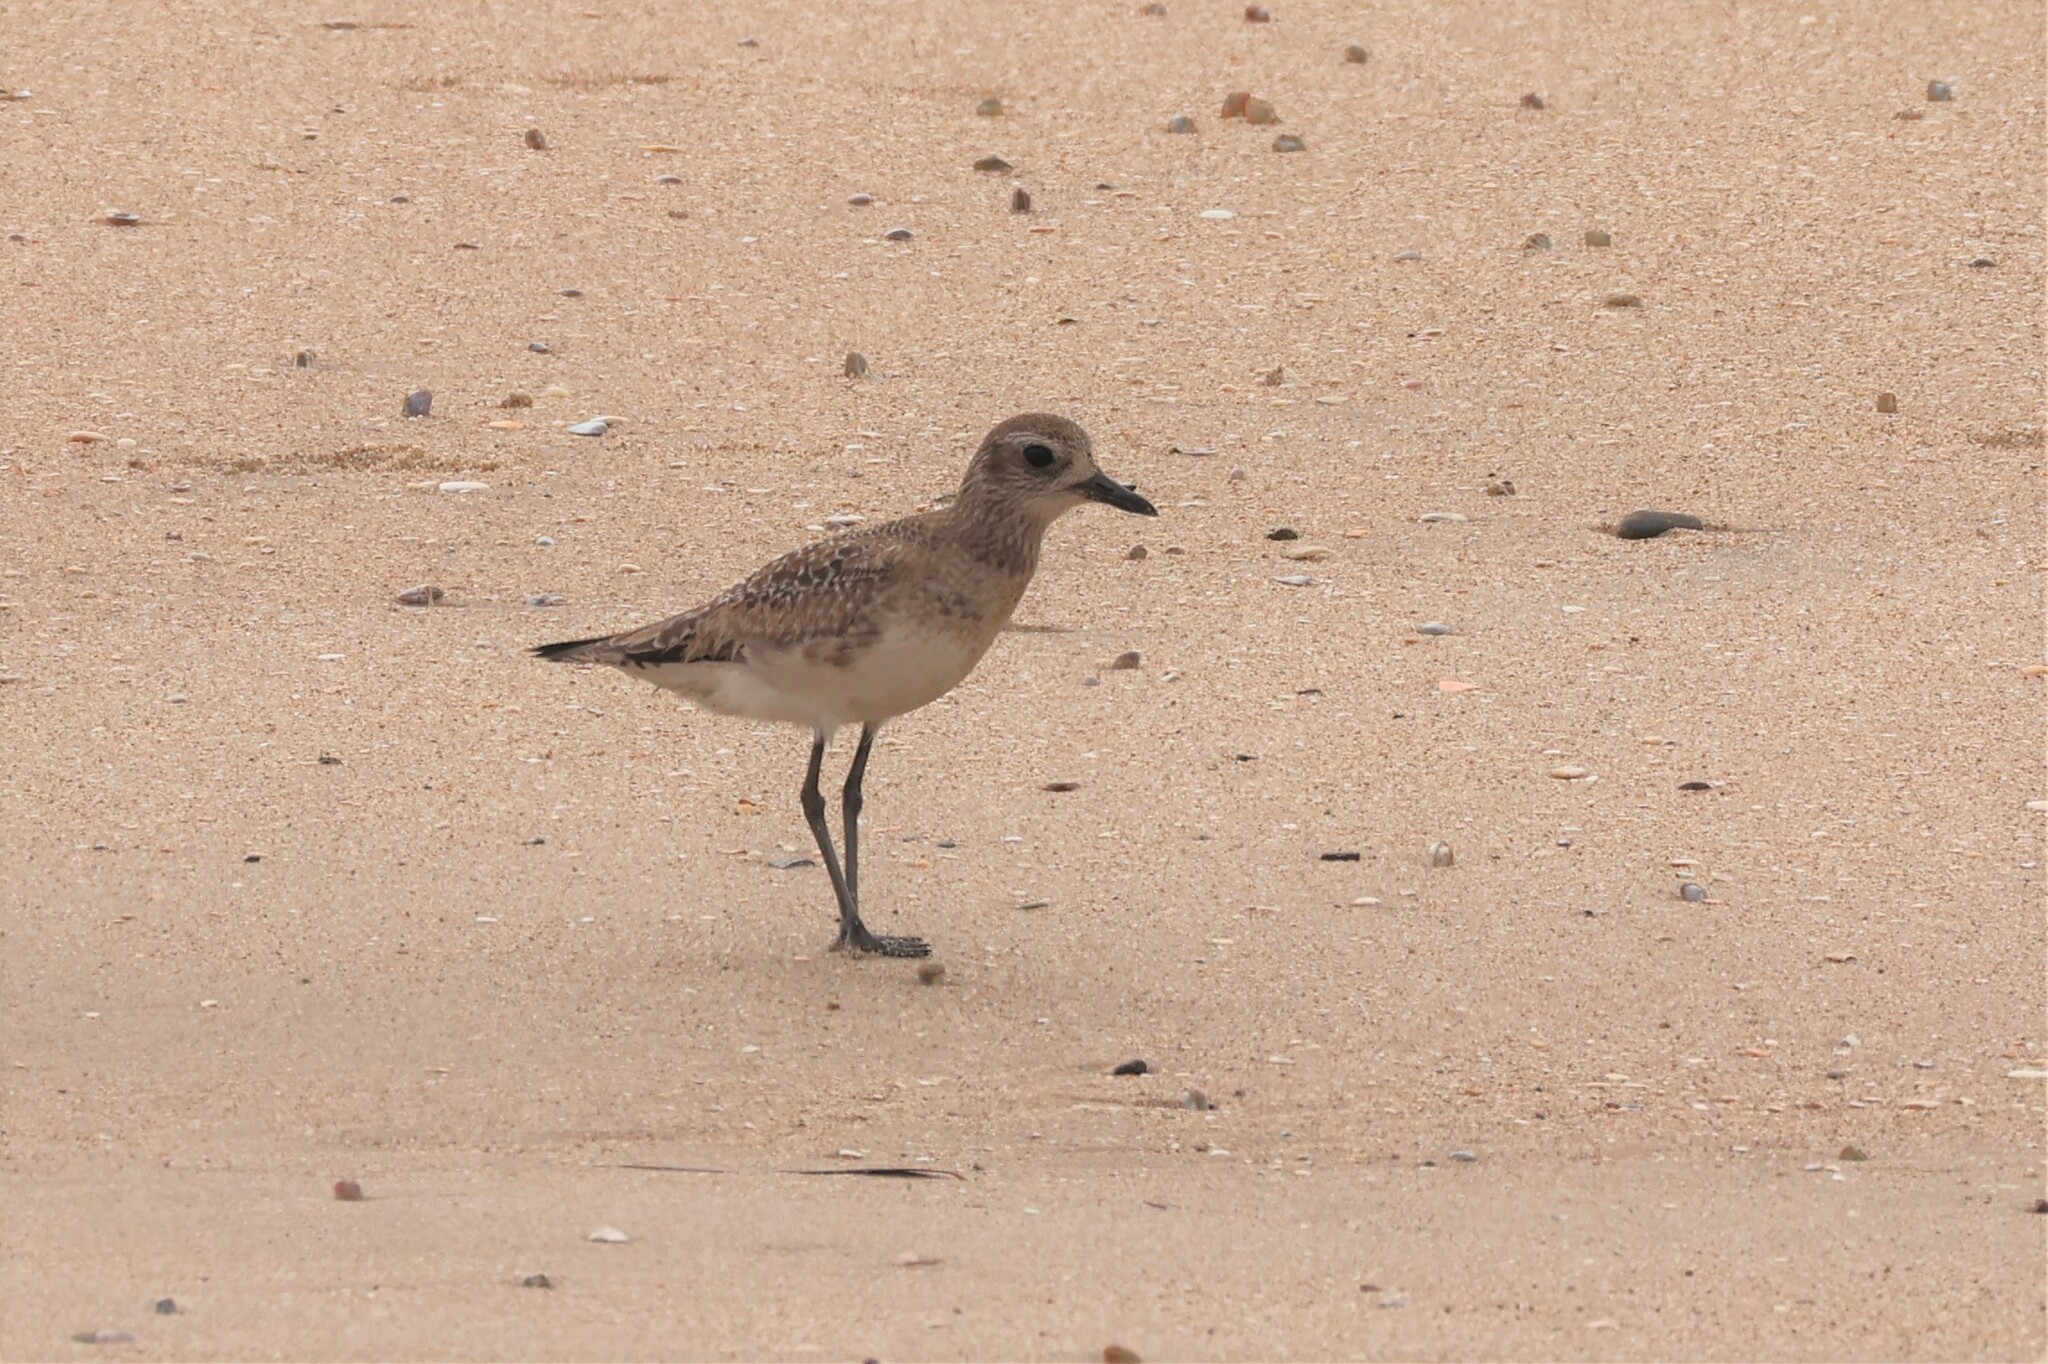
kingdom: Animalia
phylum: Chordata
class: Aves
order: Charadriiformes
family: Charadriidae
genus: Pluvialis
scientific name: Pluvialis squatarola
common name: Grey plover
